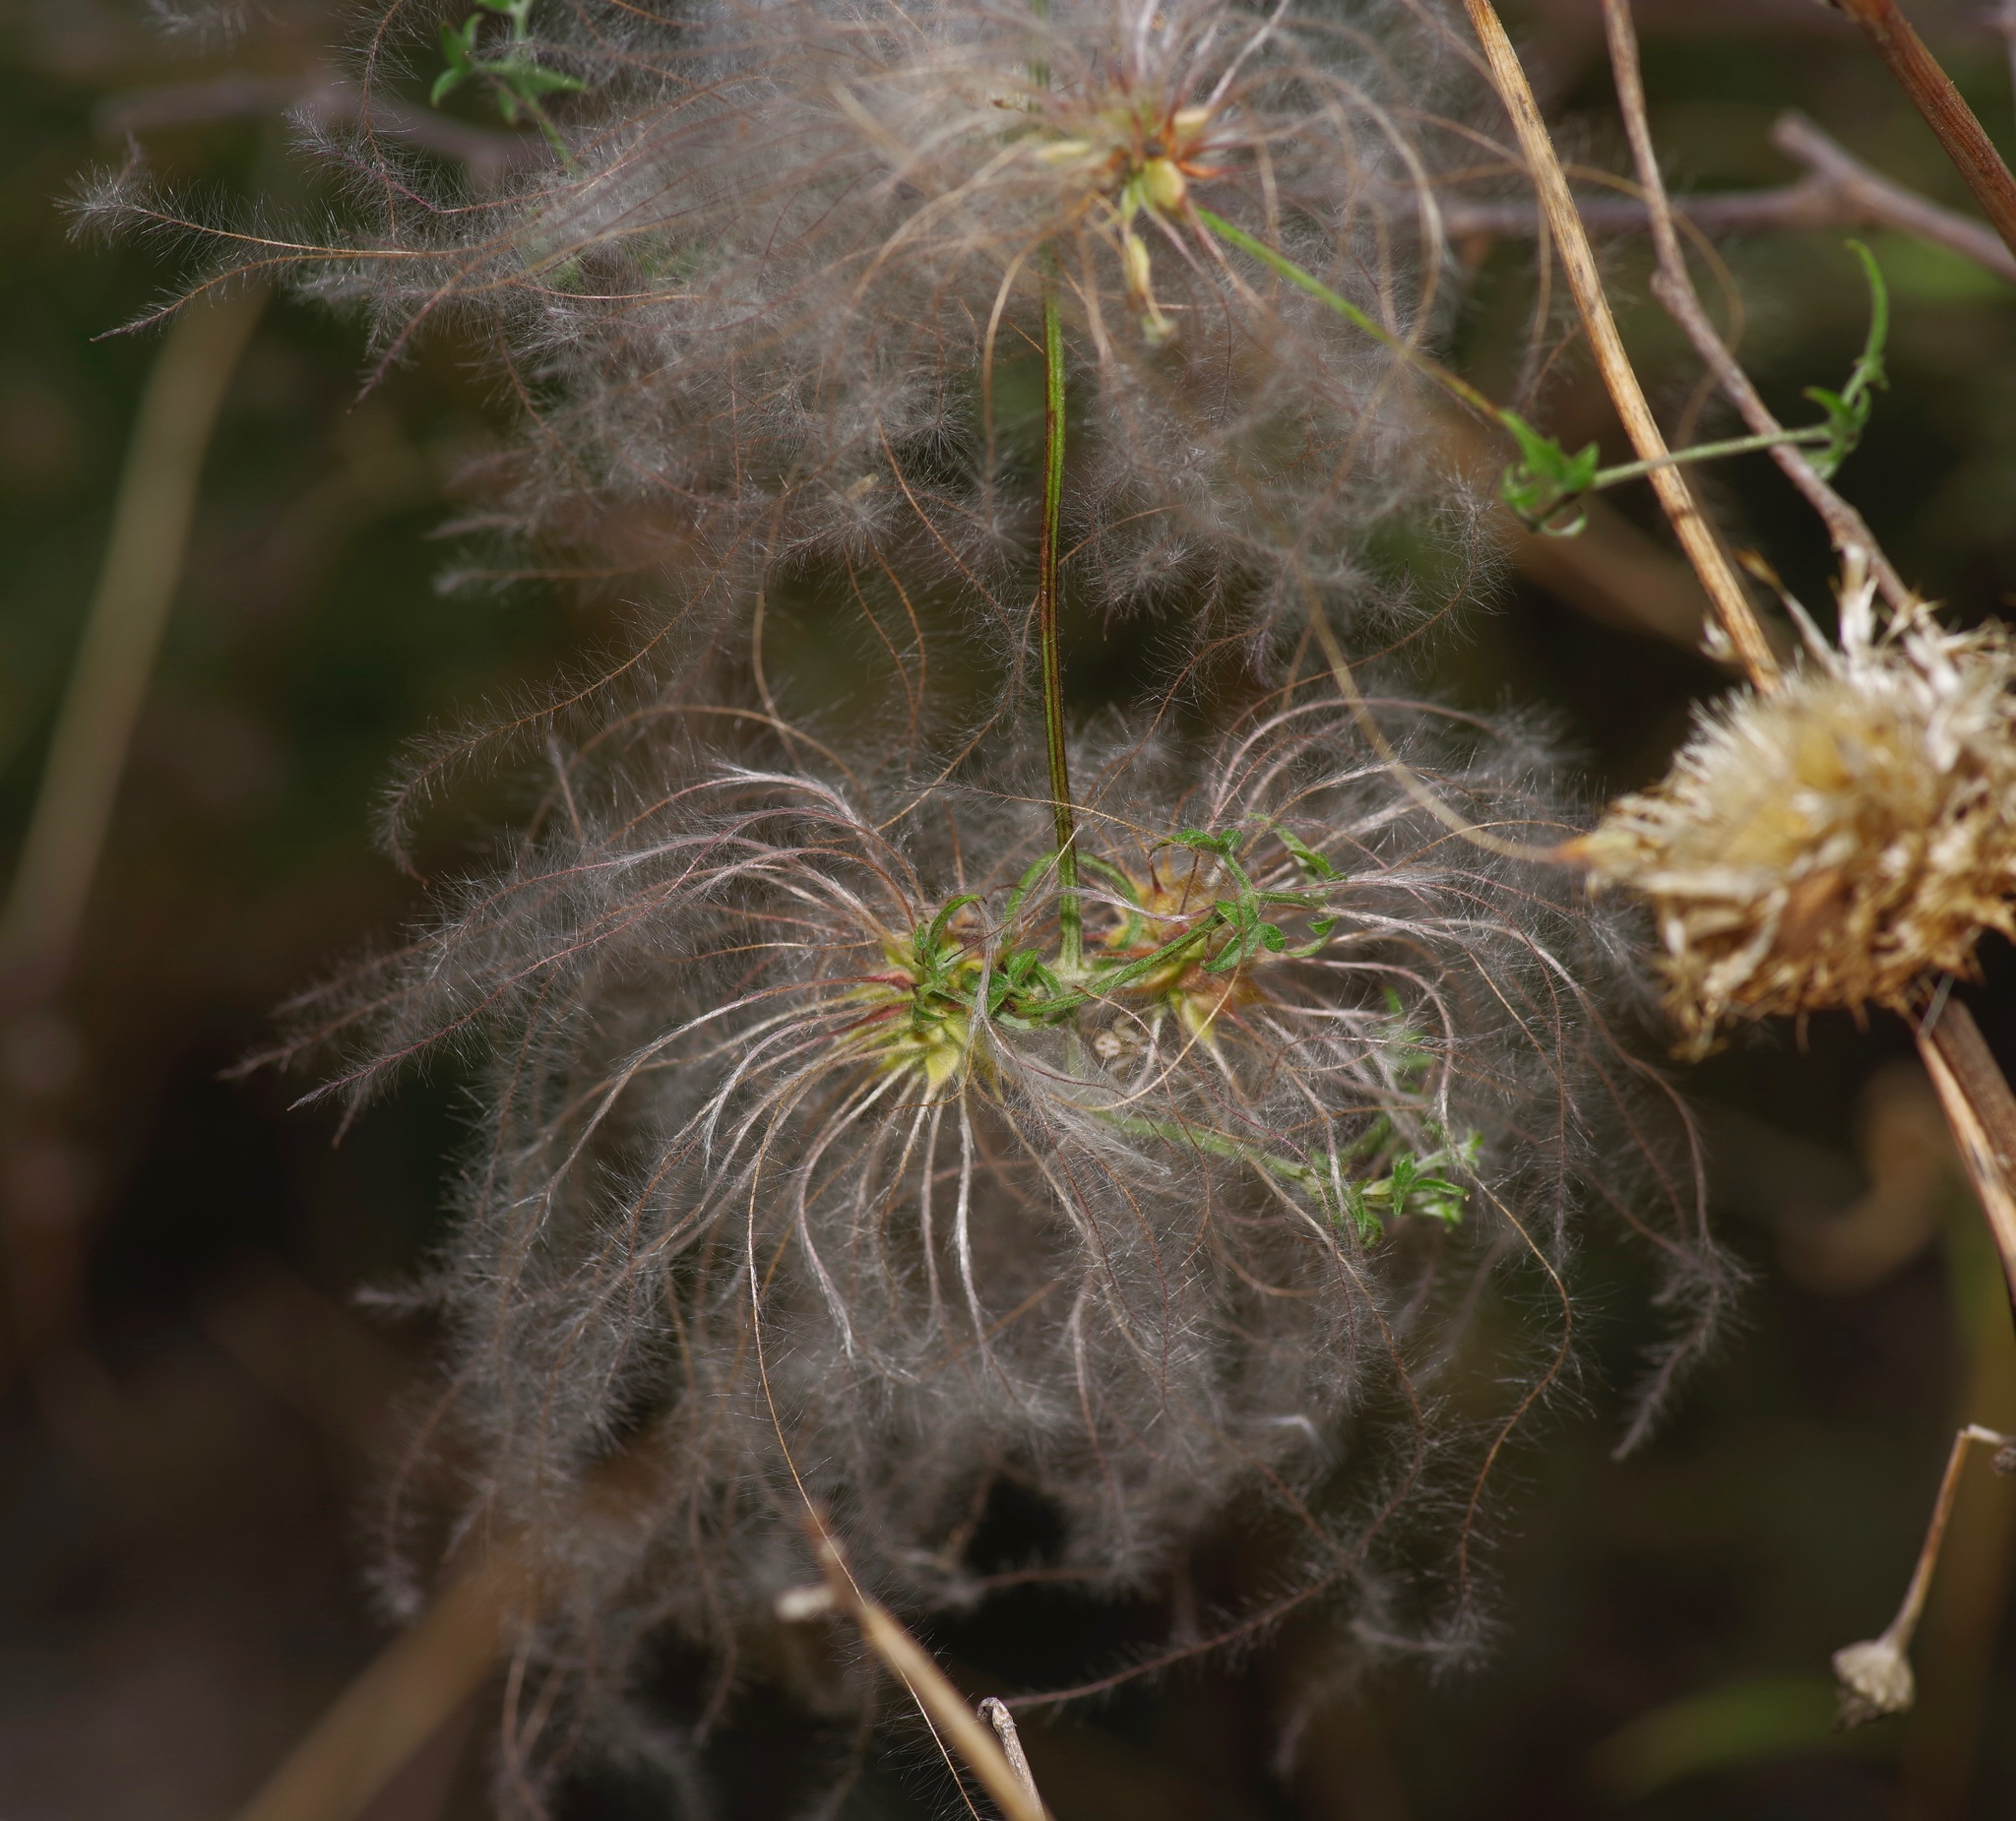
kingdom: Plantae
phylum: Tracheophyta
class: Magnoliopsida
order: Ranunculales
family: Ranunculaceae
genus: Clematis
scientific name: Clematis drummondii
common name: Texas virgin's bower
